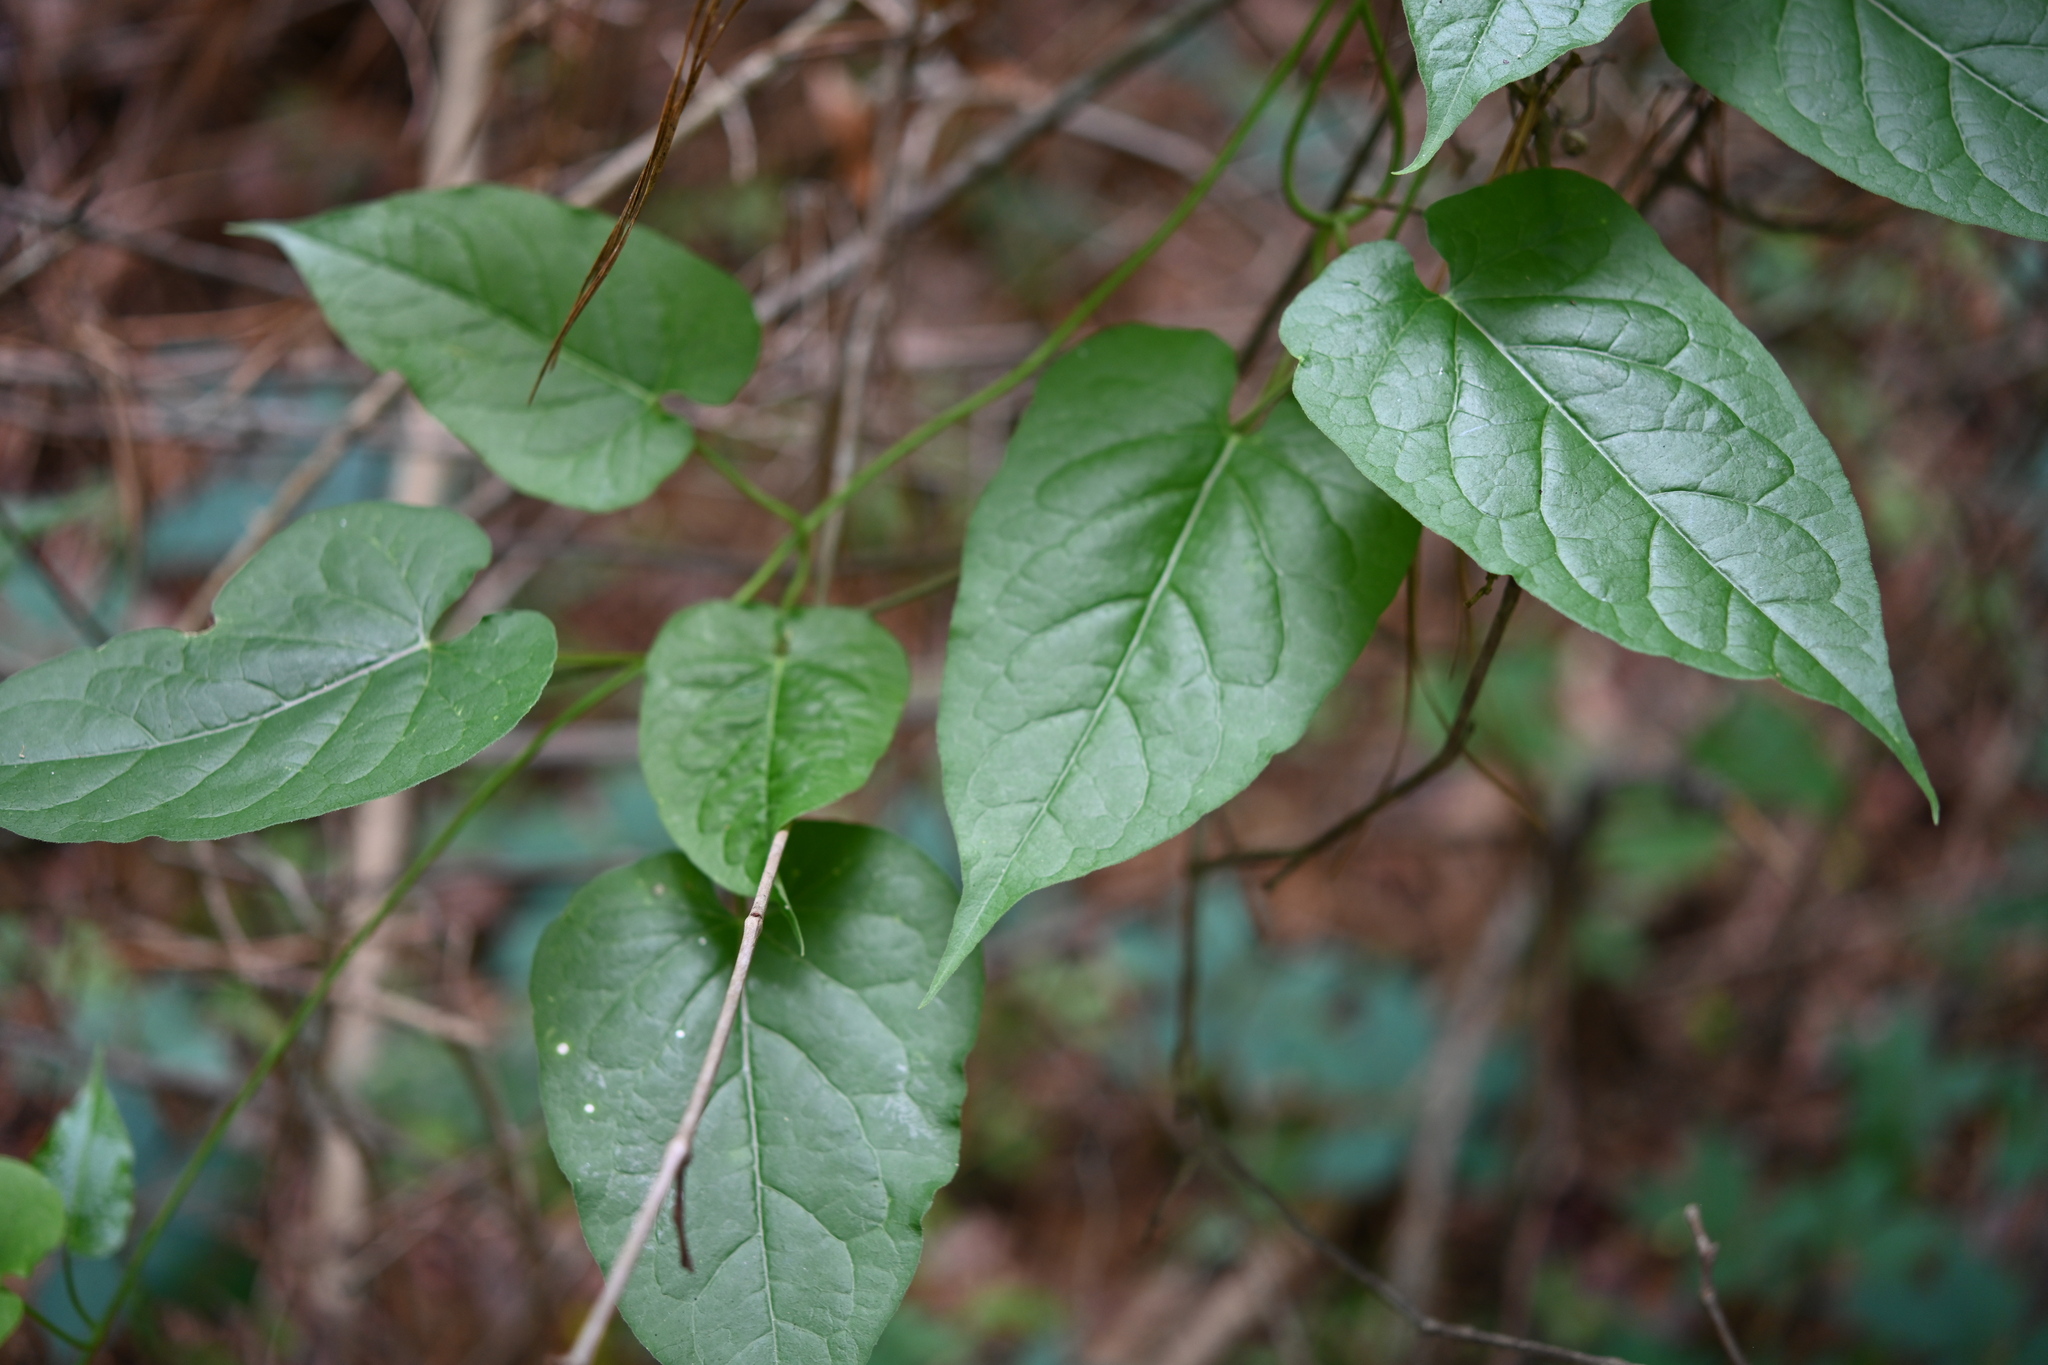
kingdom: Plantae
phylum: Tracheophyta
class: Magnoliopsida
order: Gentianales
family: Apocynaceae
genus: Gonolobus
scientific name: Gonolobus suberosus
